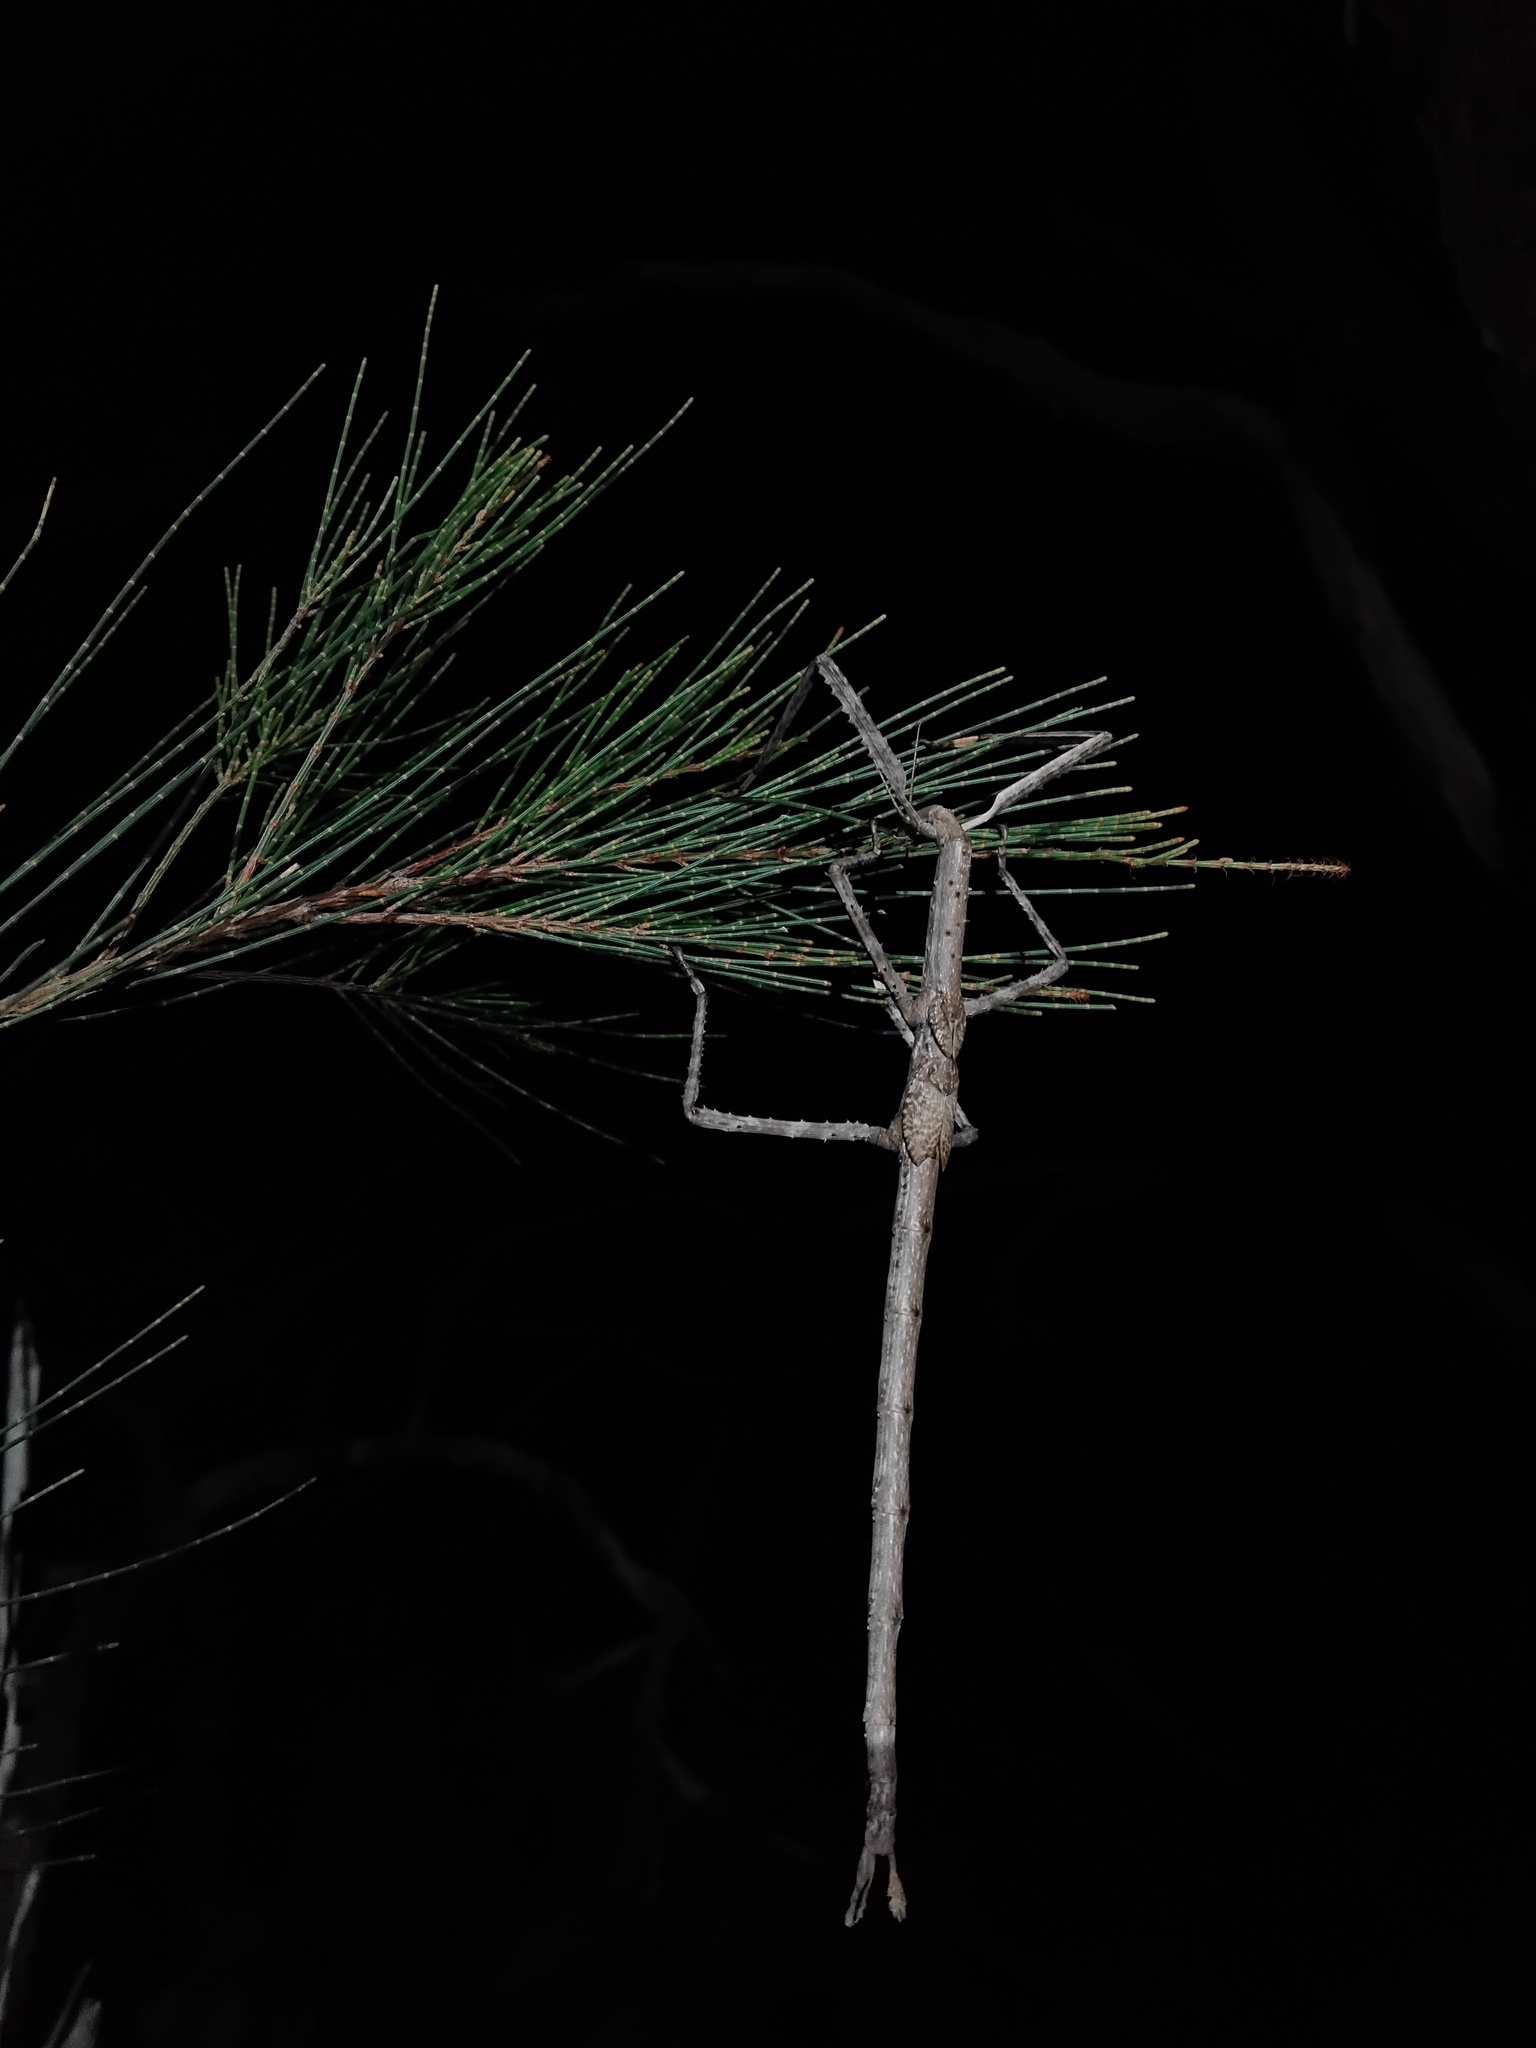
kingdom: Animalia
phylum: Arthropoda
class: Insecta
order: Phasmida
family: Phasmatidae
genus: Acrophylla
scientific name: Acrophylla titan
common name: Titan stick insect
